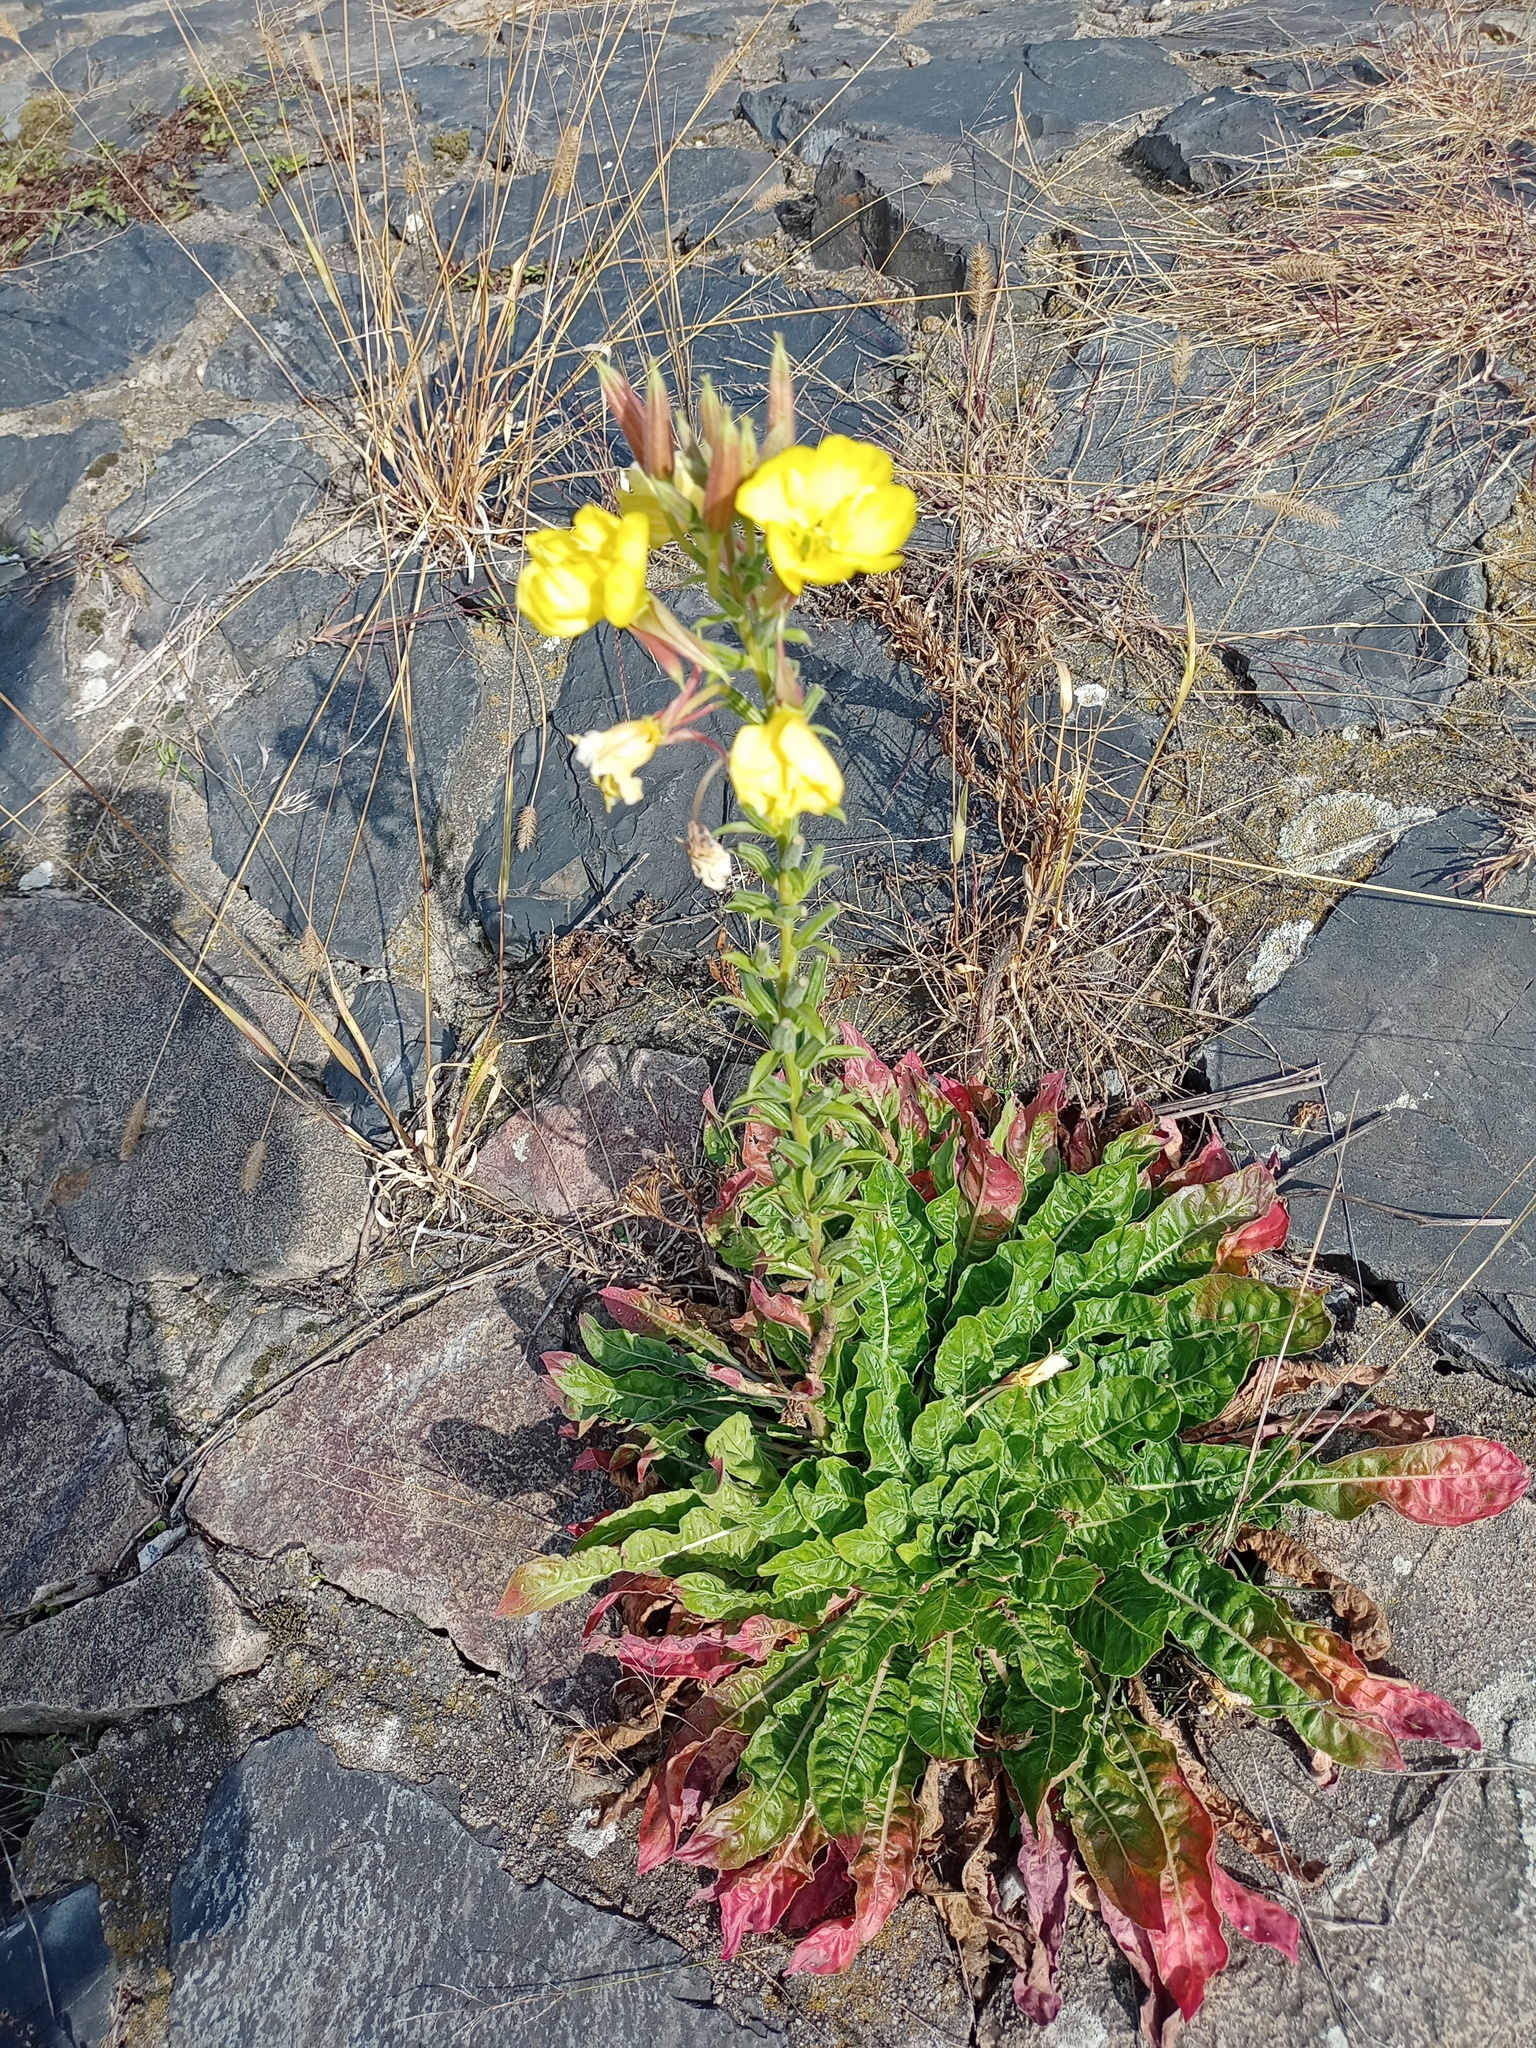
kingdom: Plantae
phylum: Tracheophyta
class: Magnoliopsida
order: Myrtales
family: Onagraceae
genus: Oenothera
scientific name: Oenothera glazioviana
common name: Large-flowered evening-primrose
